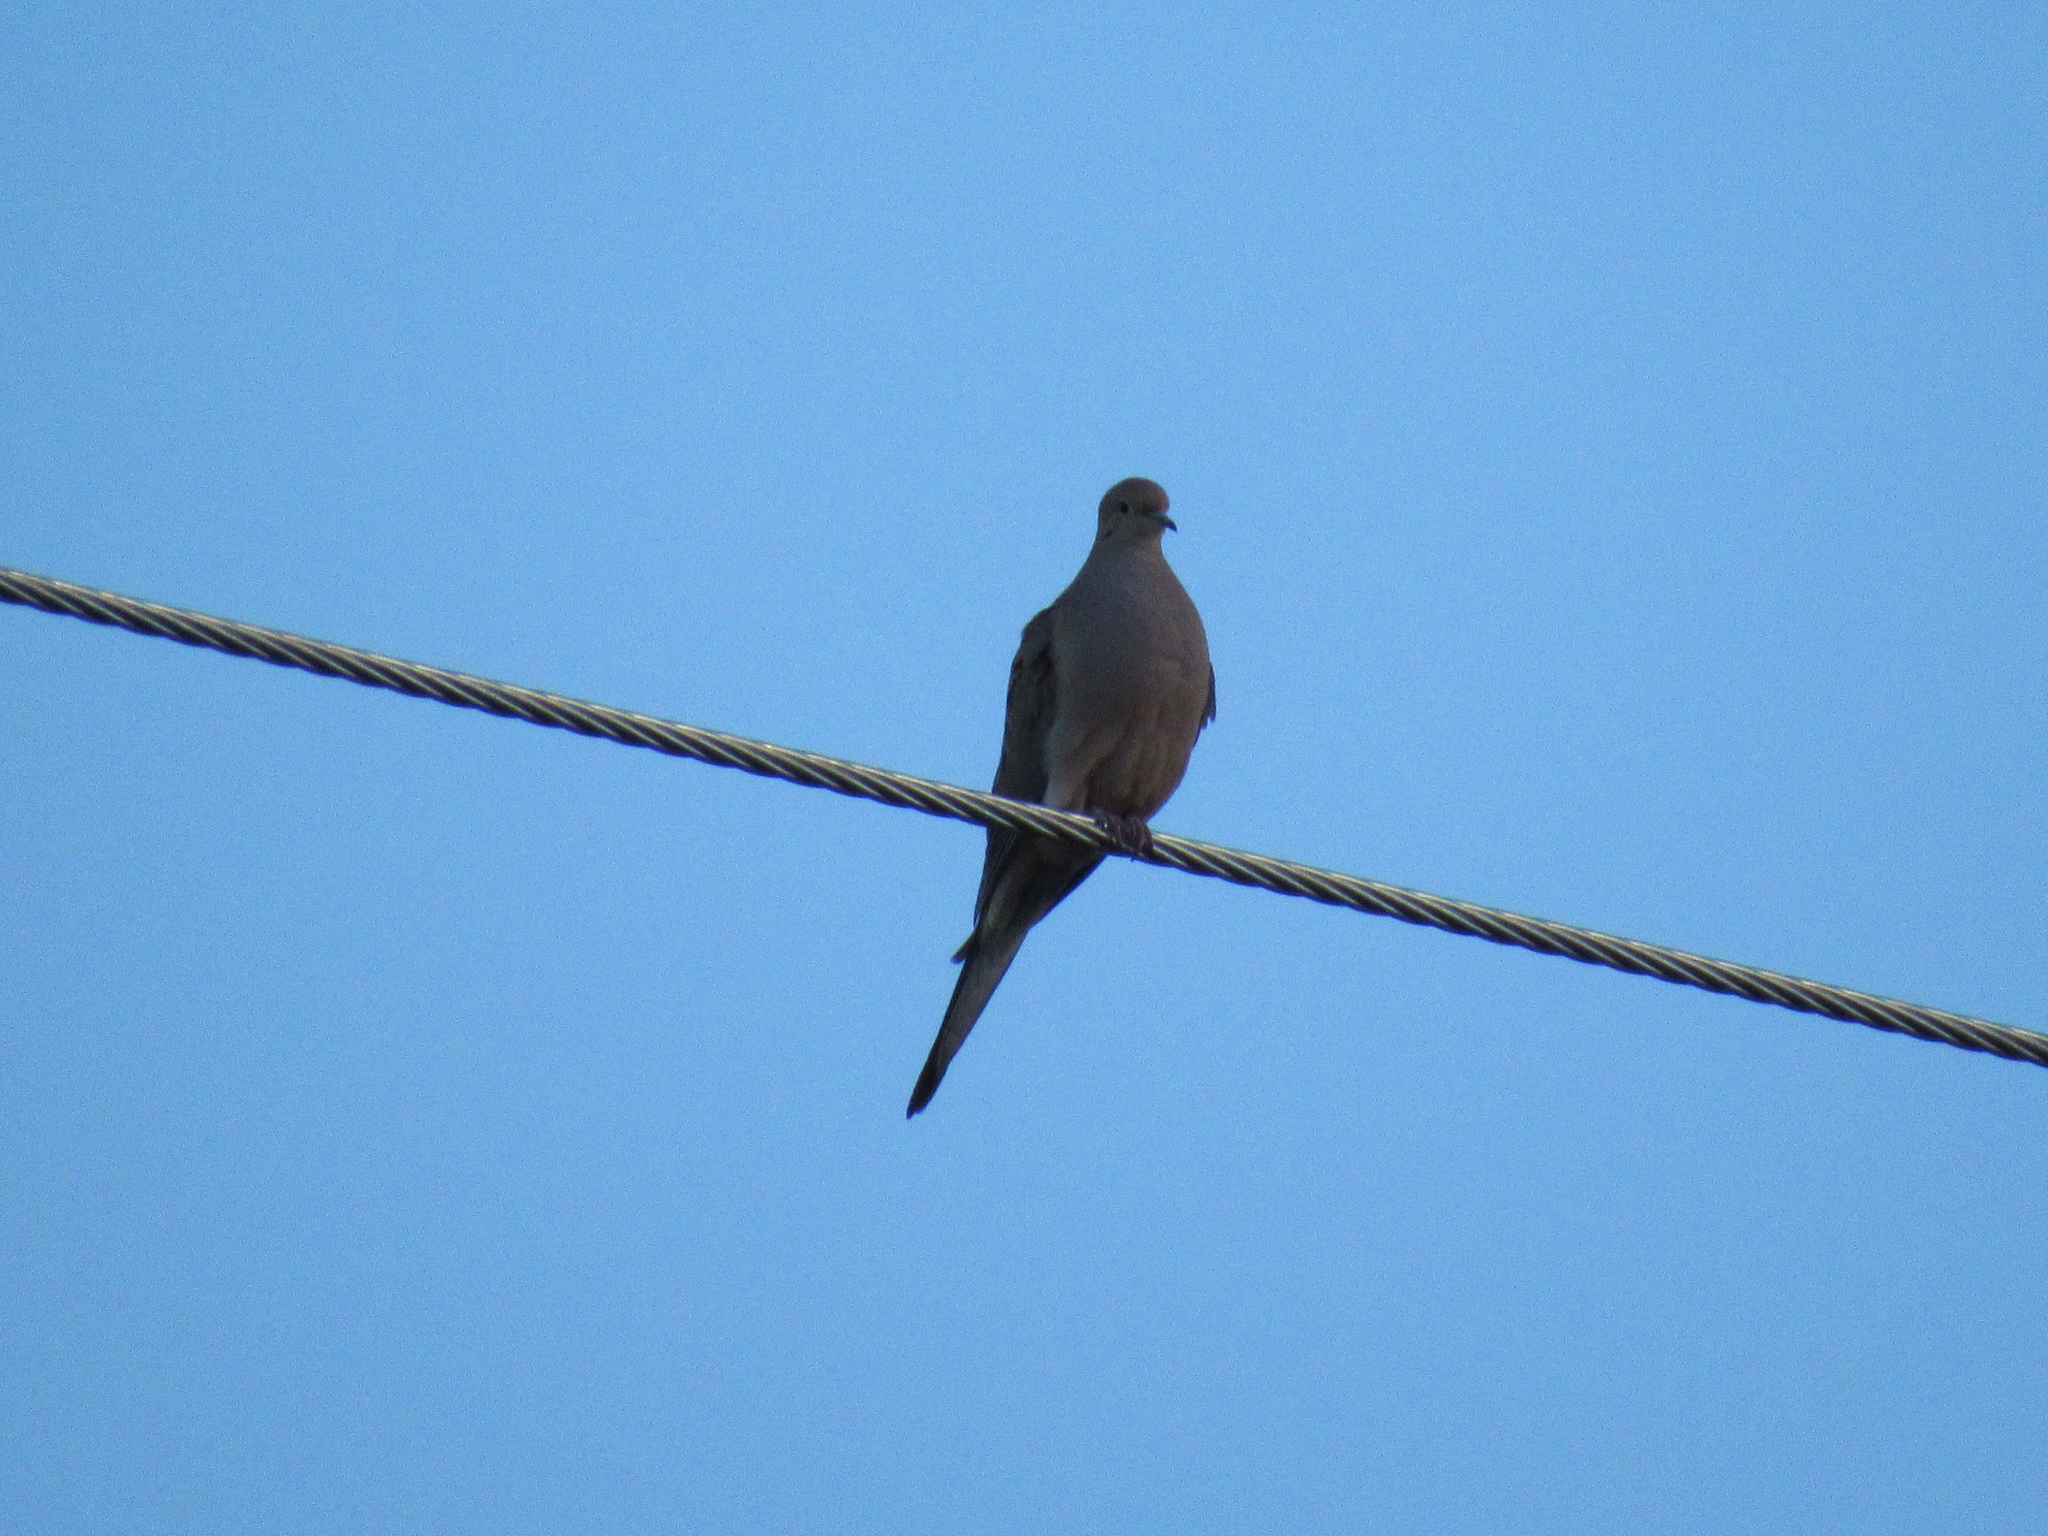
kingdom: Animalia
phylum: Chordata
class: Aves
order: Columbiformes
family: Columbidae
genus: Zenaida
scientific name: Zenaida macroura
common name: Mourning dove
